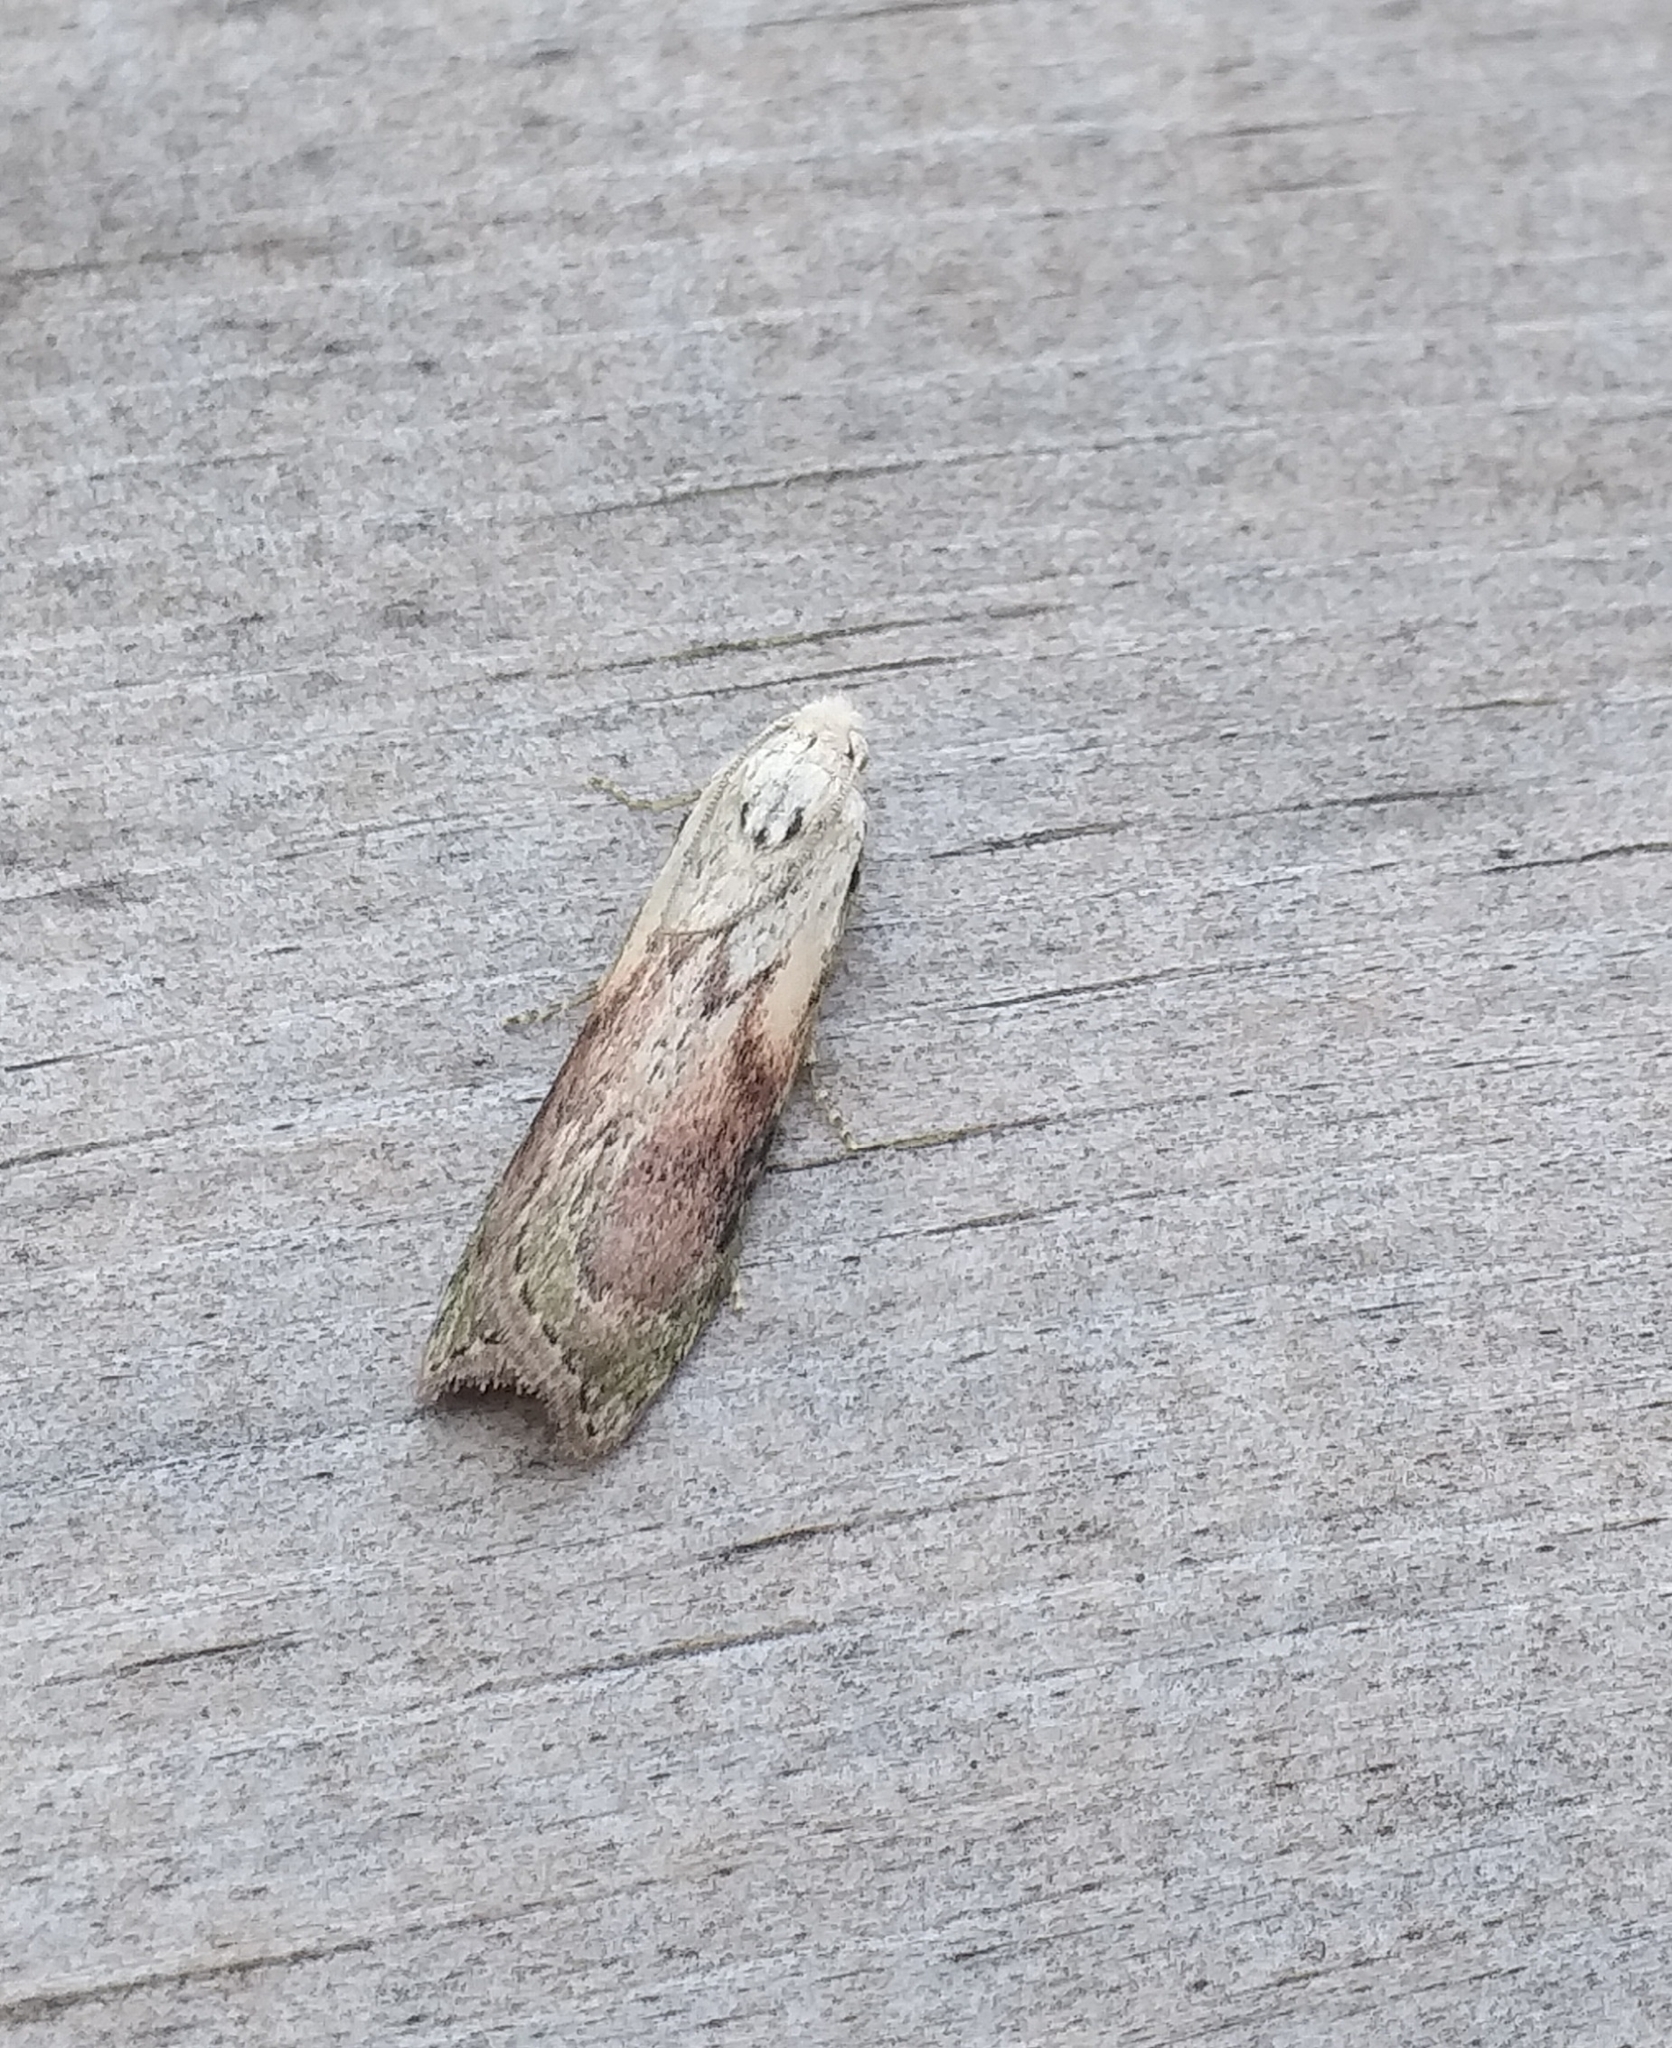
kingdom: Animalia
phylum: Arthropoda
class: Insecta
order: Lepidoptera
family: Pyralidae
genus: Aphomia
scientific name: Aphomia sociella
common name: Bee moth
